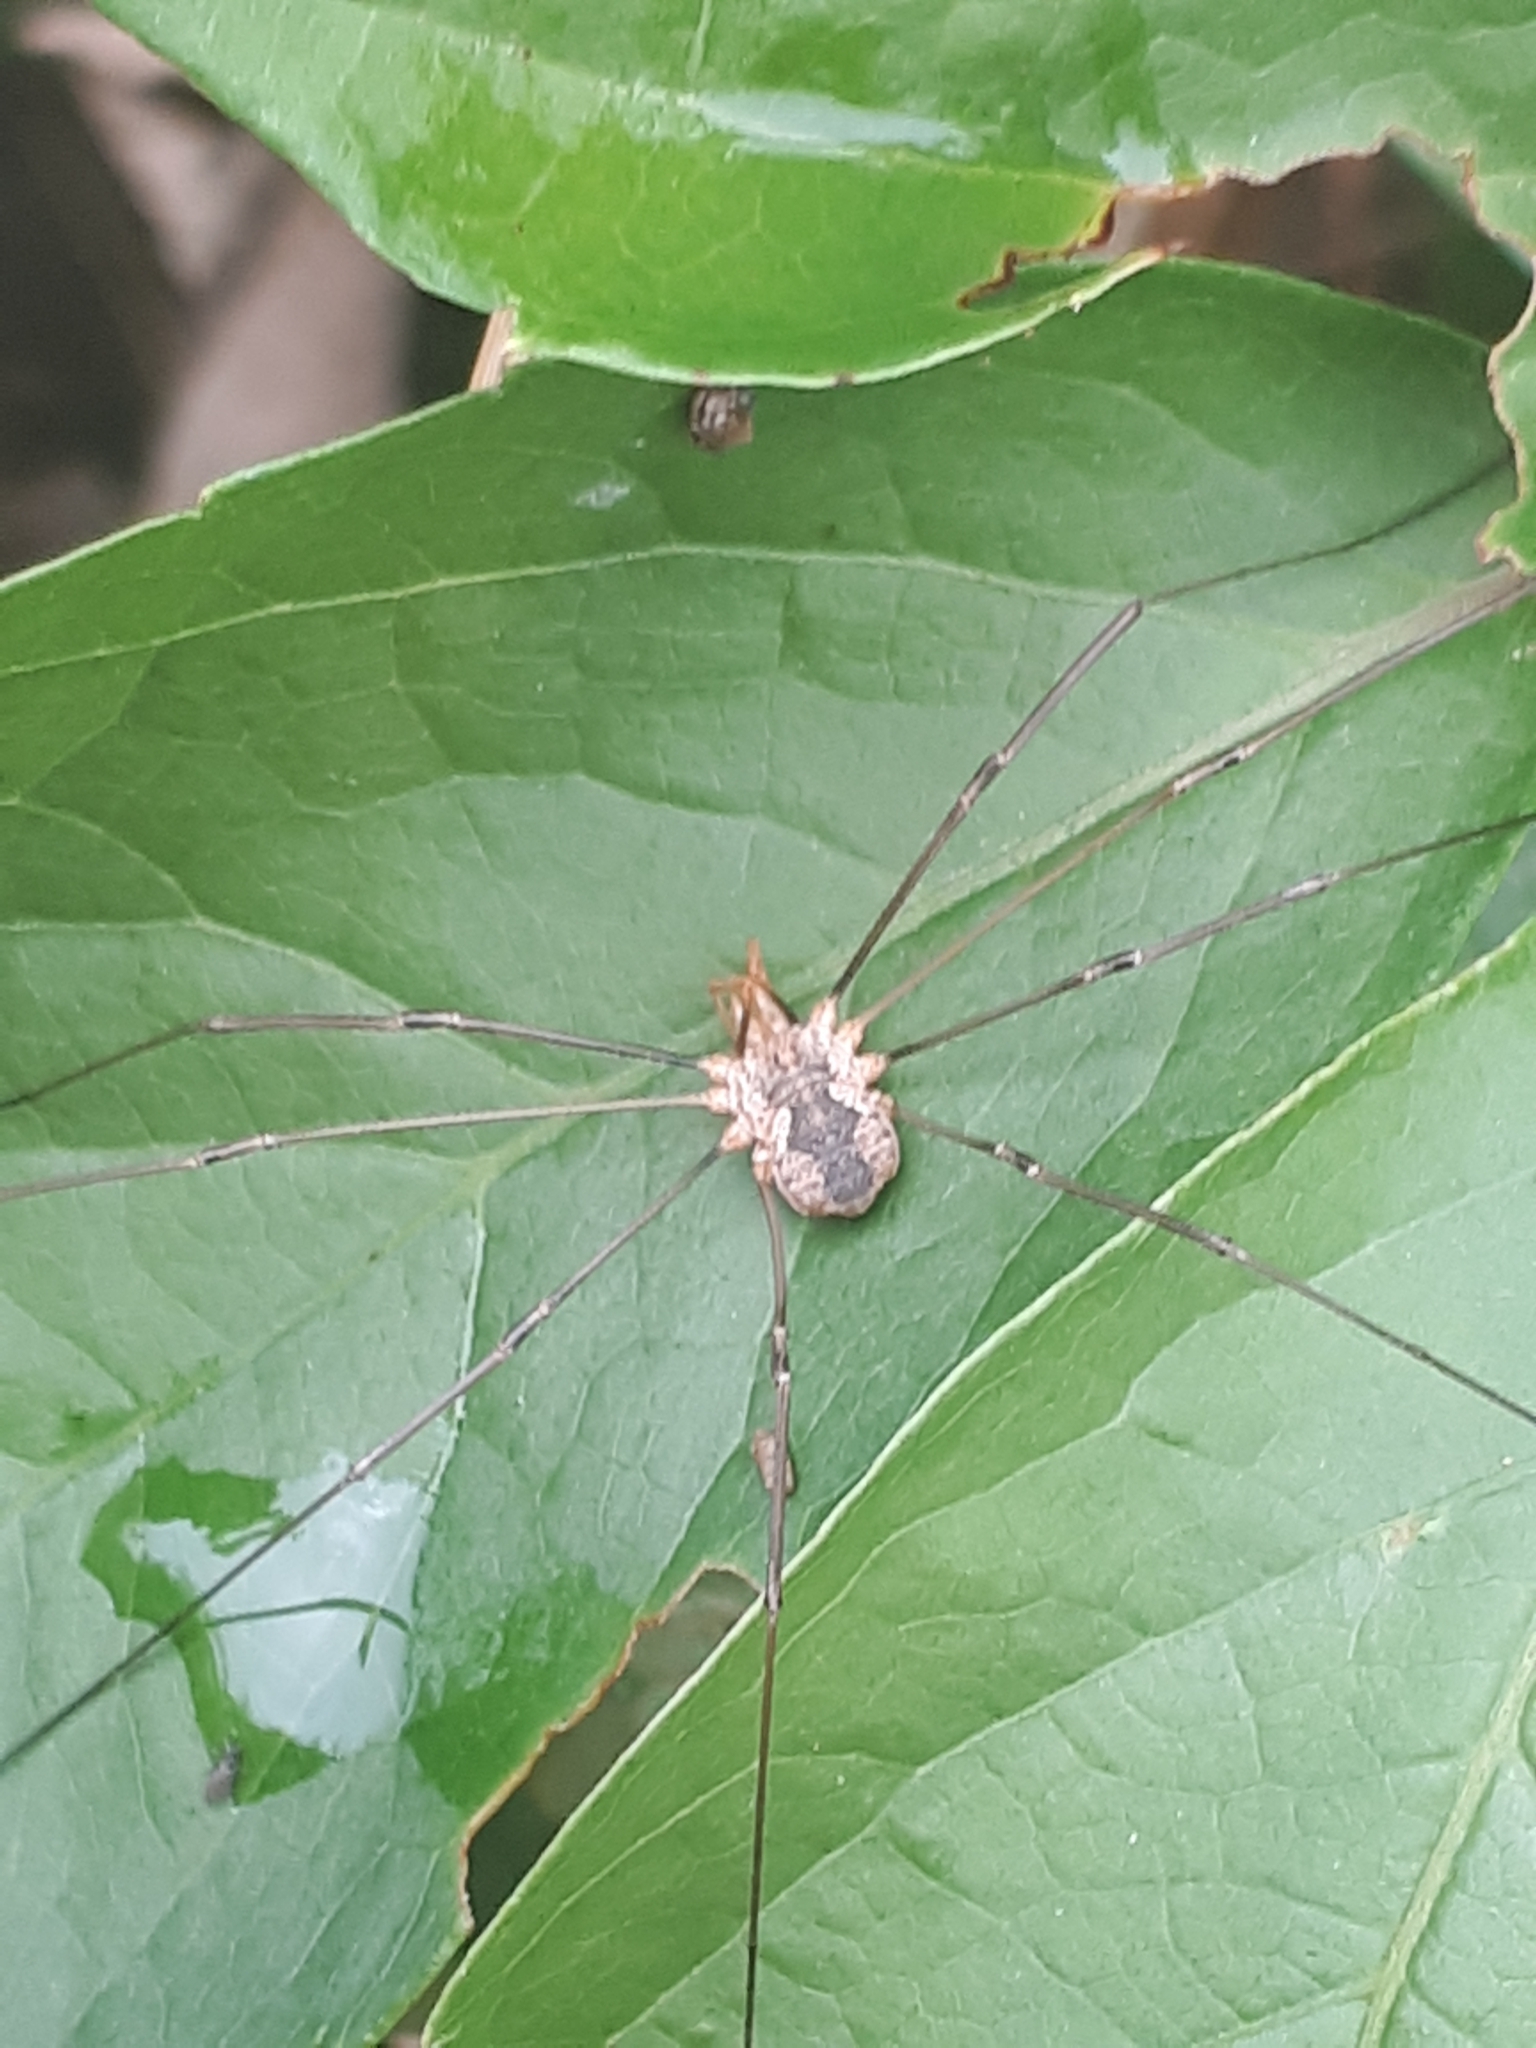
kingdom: Animalia
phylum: Arthropoda
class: Arachnida
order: Opiliones
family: Phalangiidae
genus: Phalangium
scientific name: Phalangium opilio
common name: Daddy longleg
